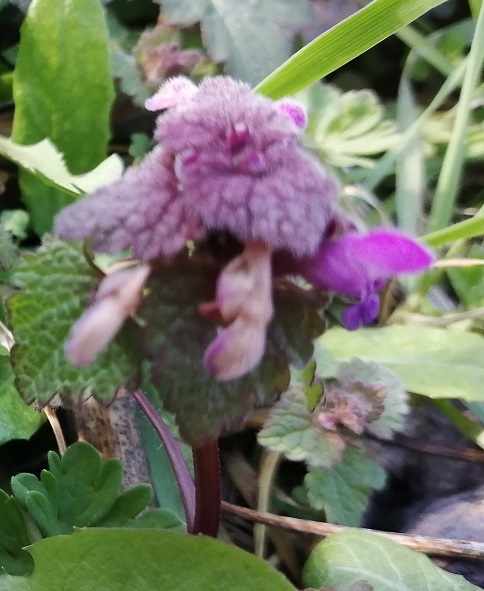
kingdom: Plantae
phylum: Tracheophyta
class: Magnoliopsida
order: Lamiales
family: Lamiaceae
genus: Lamium
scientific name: Lamium purpureum
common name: Red dead-nettle
